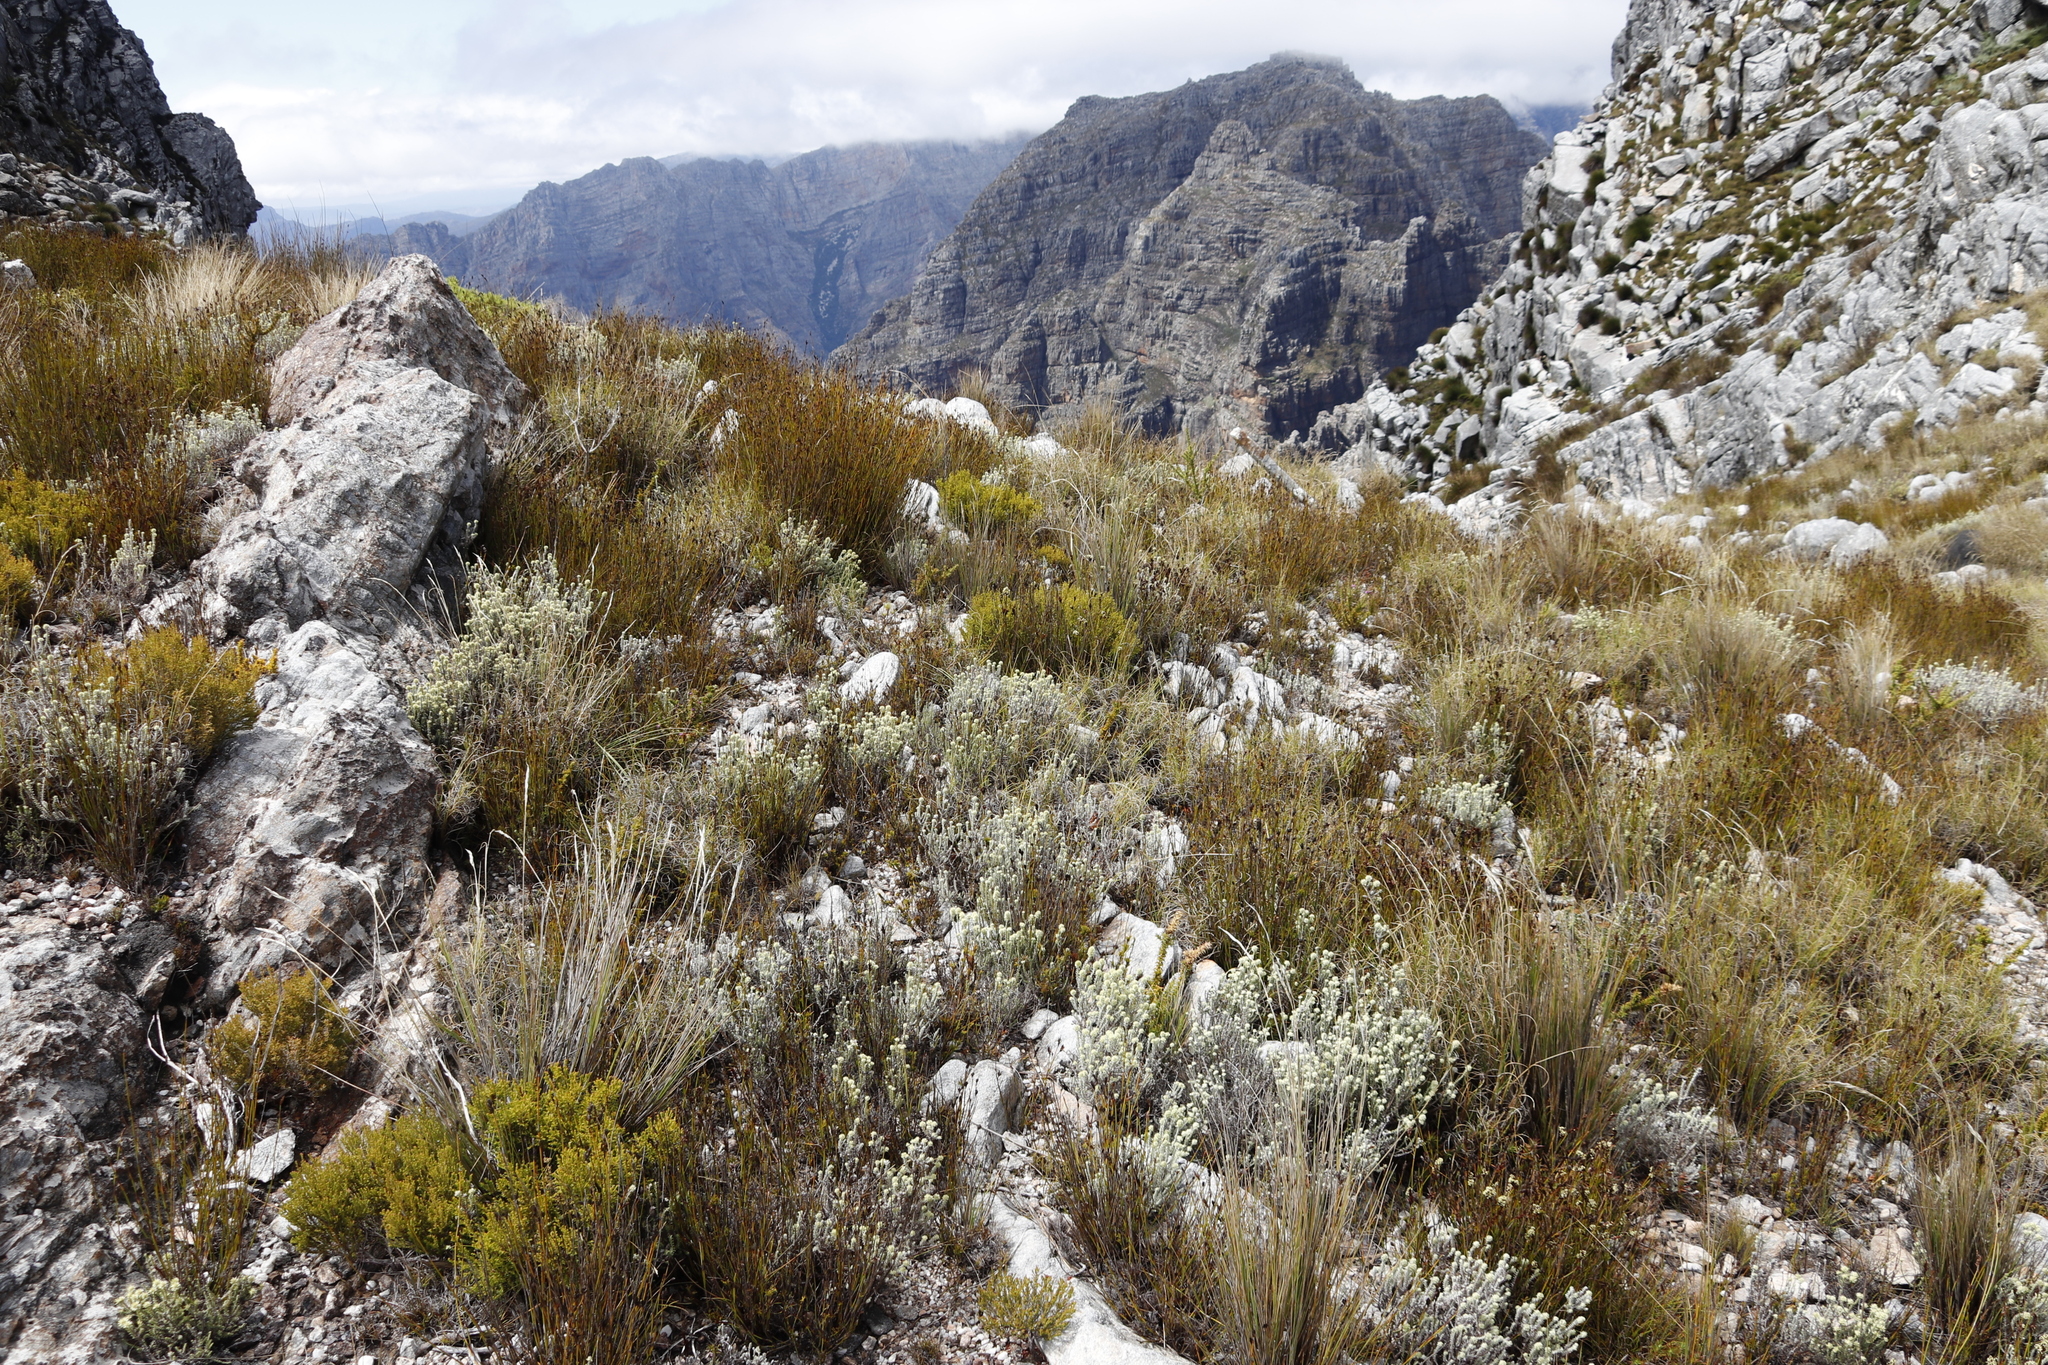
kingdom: Plantae
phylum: Tracheophyta
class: Magnoliopsida
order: Asterales
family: Asteraceae
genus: Seriphium
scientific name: Seriphium spirale
